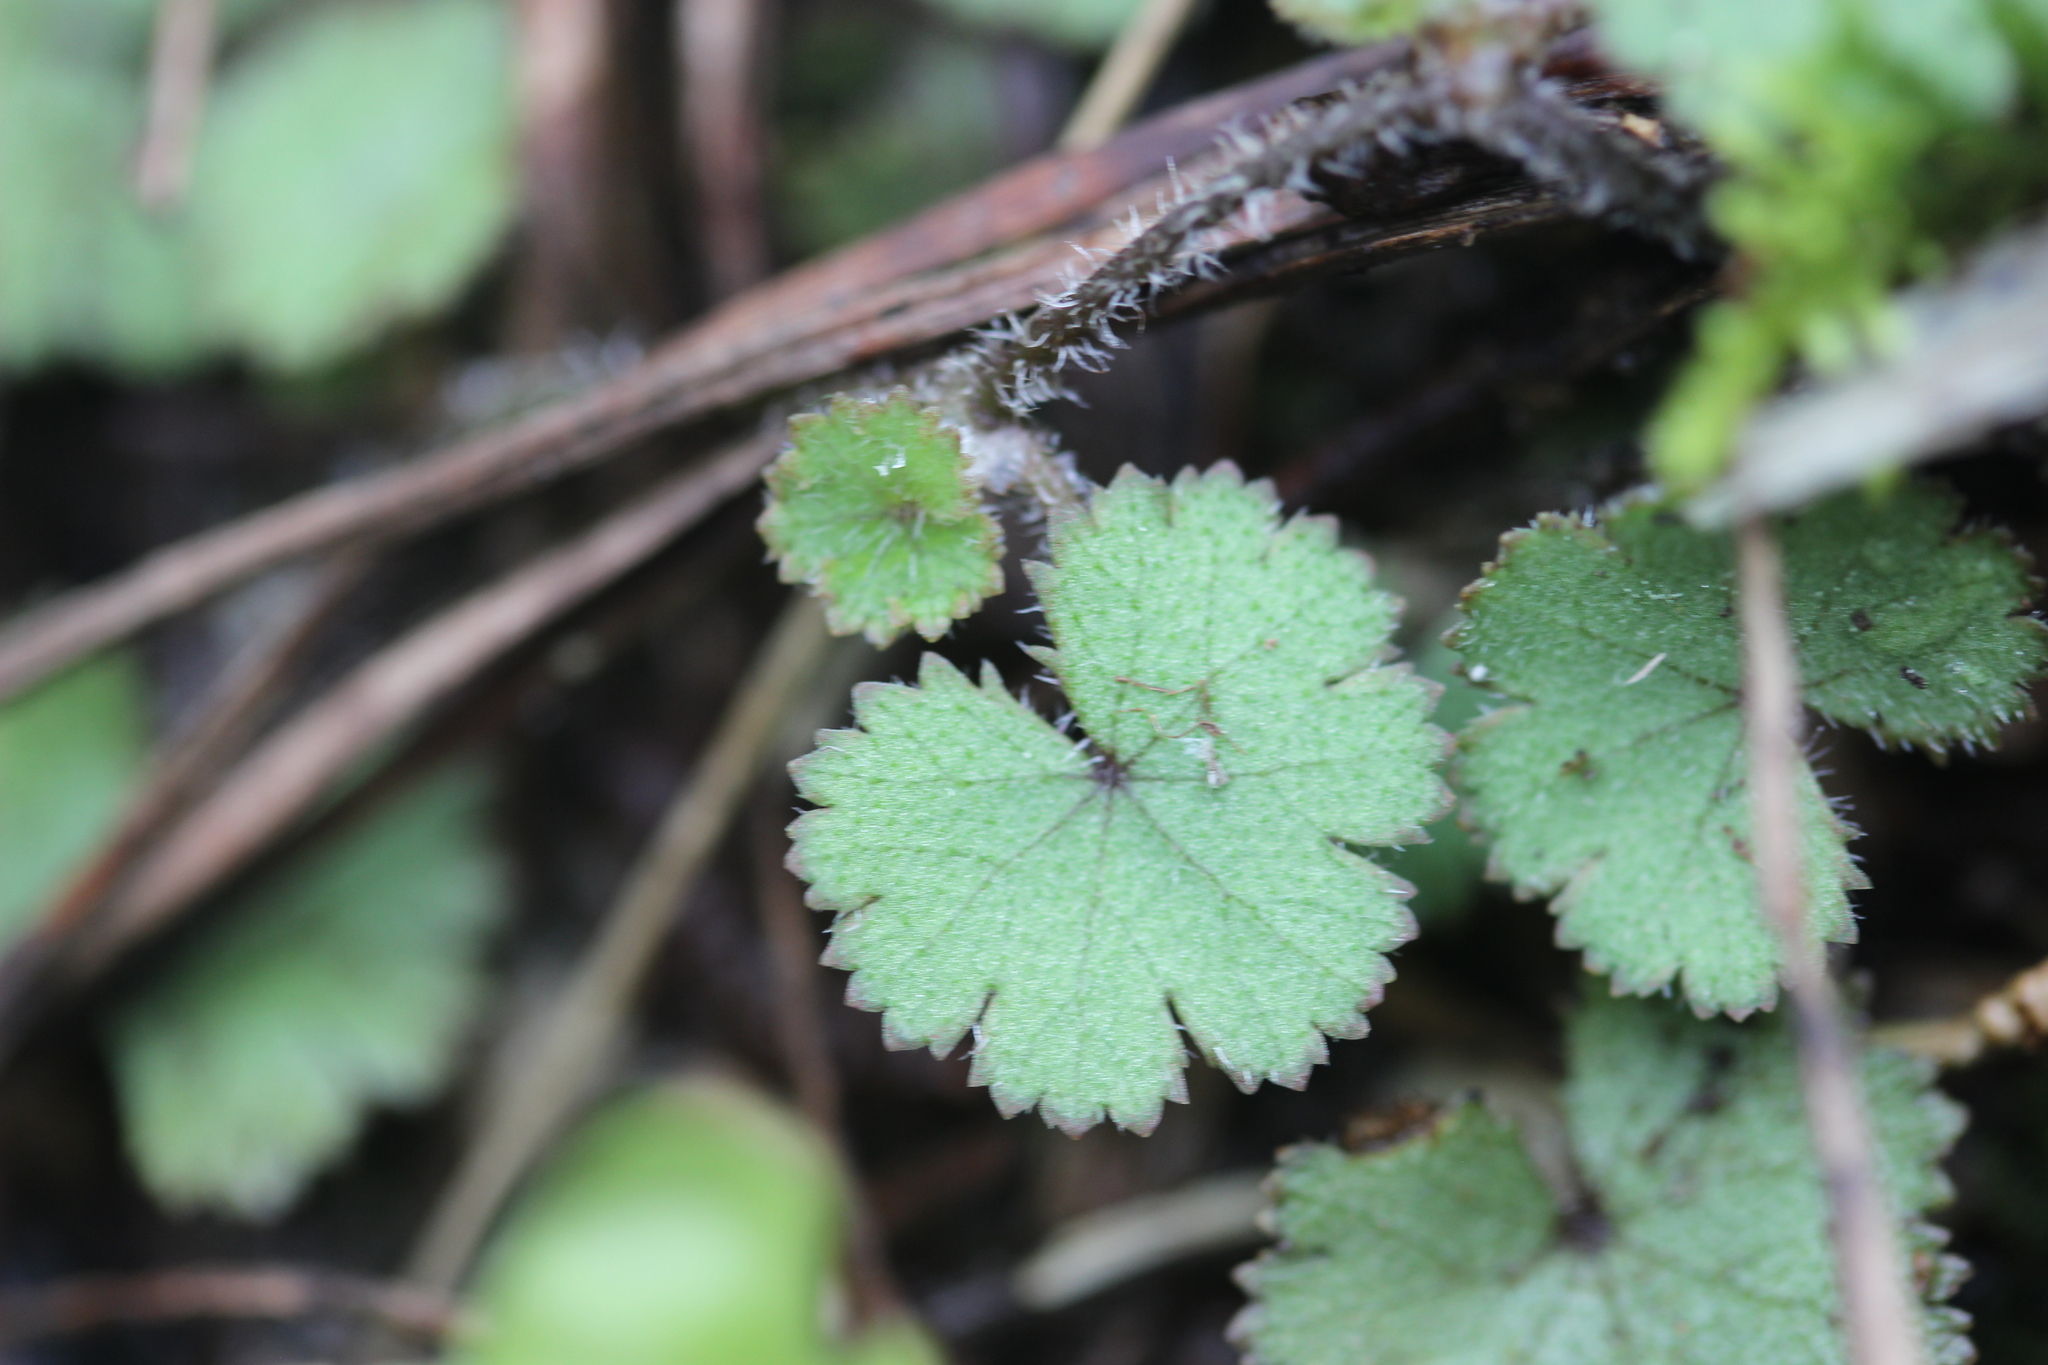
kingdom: Plantae
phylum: Tracheophyta
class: Magnoliopsida
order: Apiales
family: Araliaceae
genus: Hydrocotyle
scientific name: Hydrocotyle moschata
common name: Hairy pennywort
